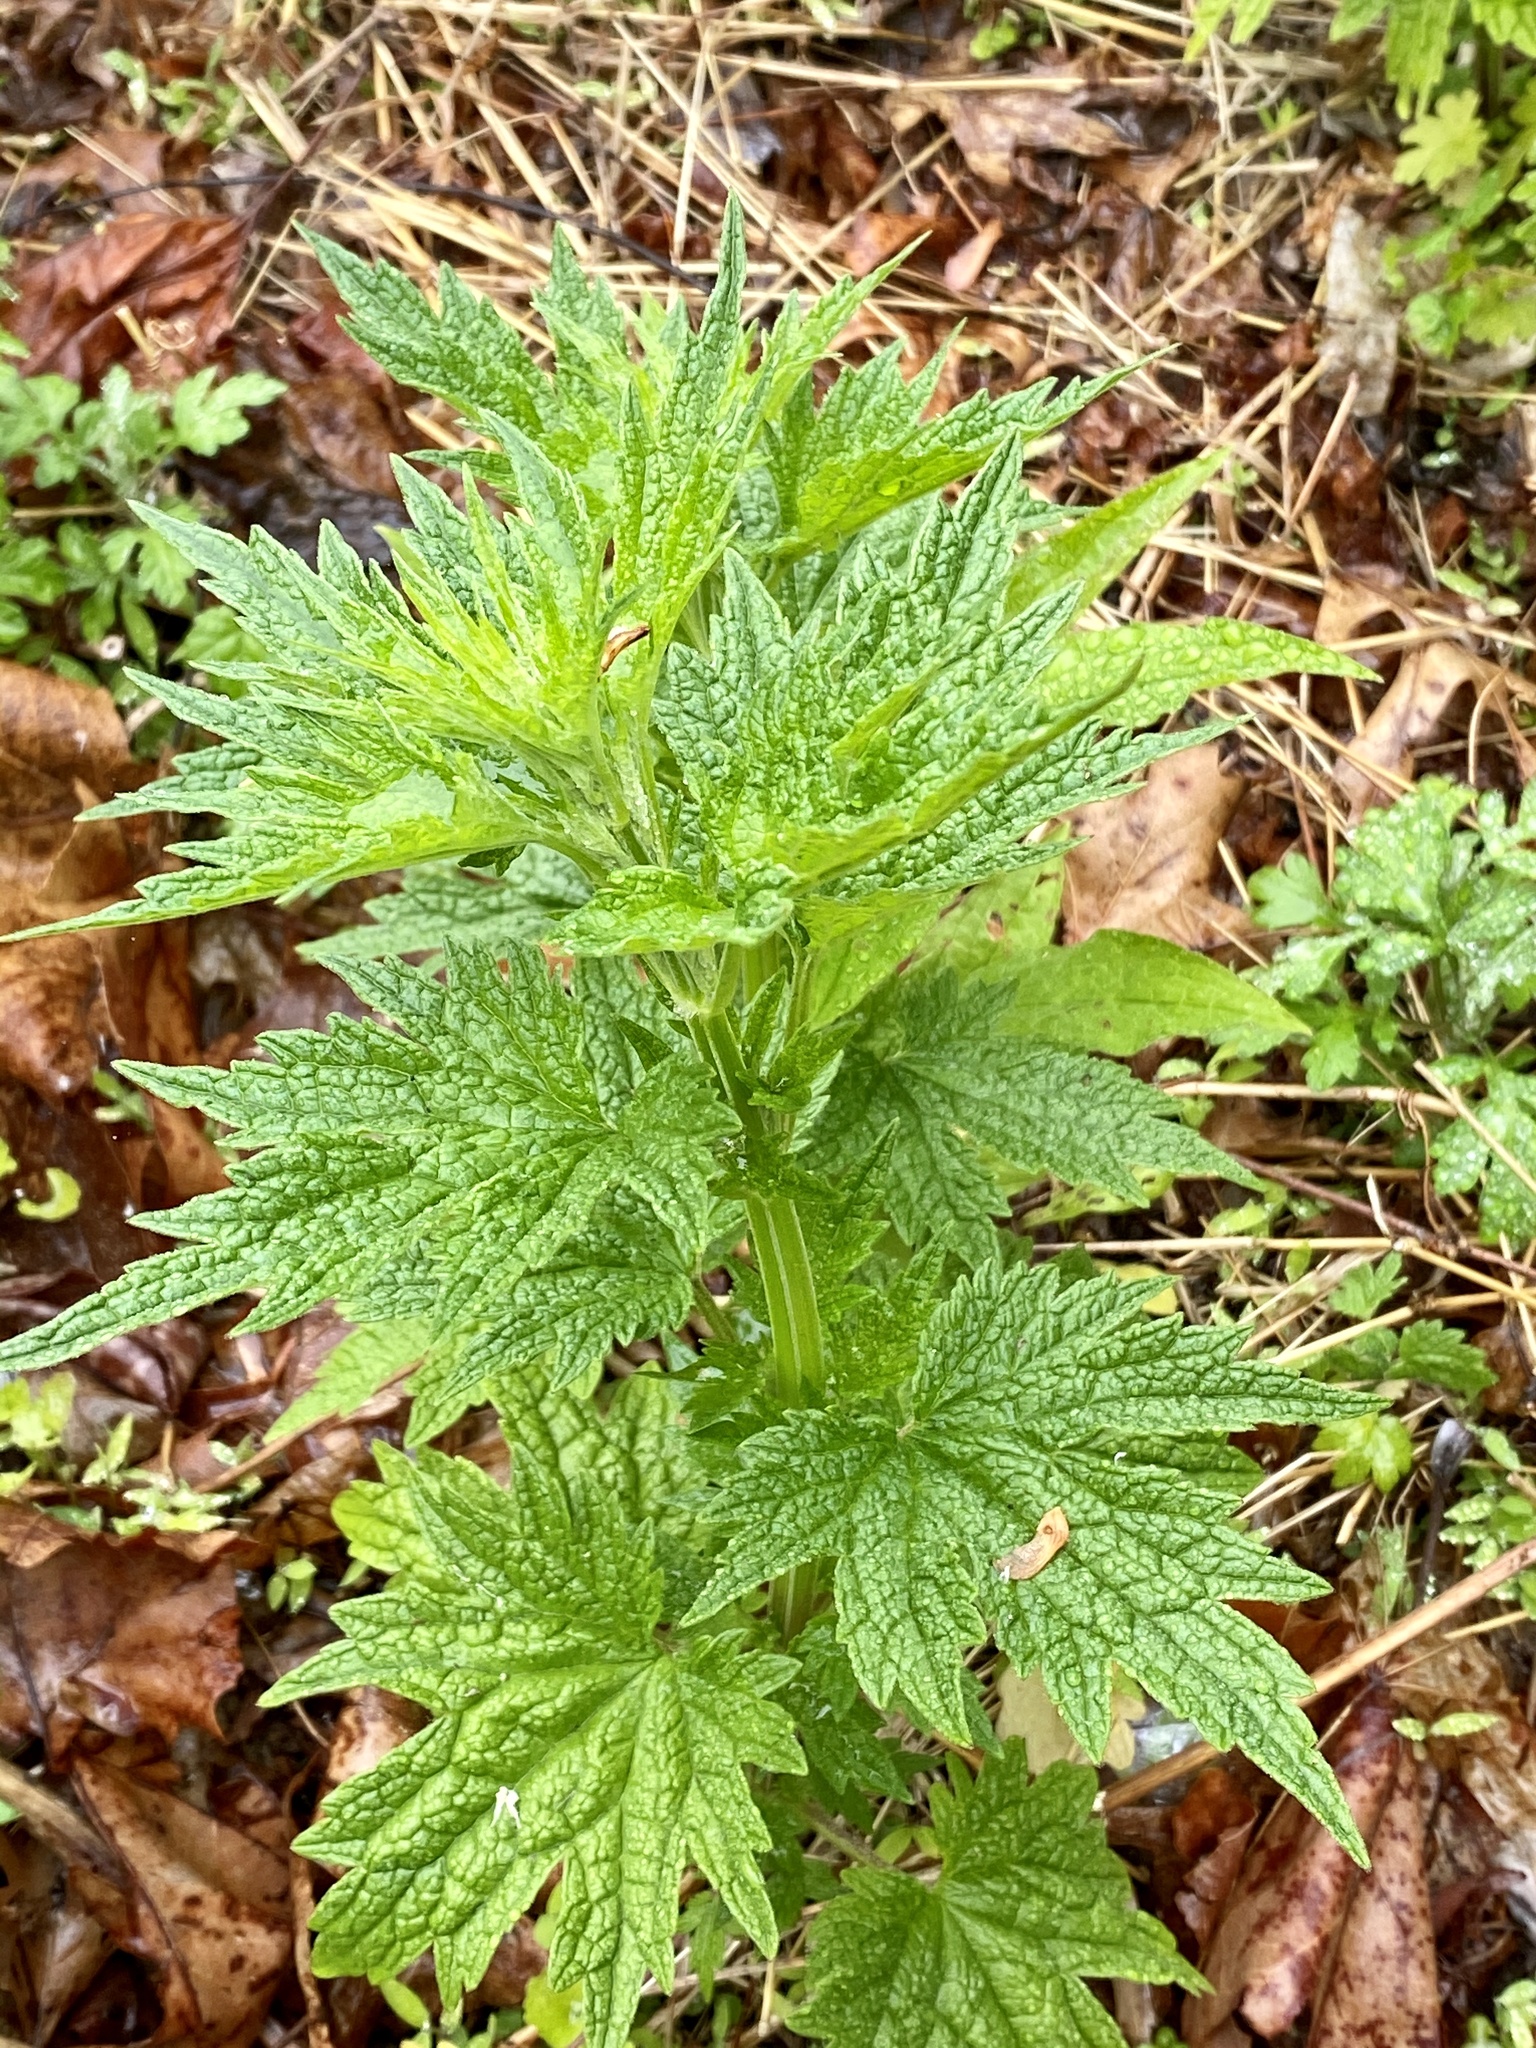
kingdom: Plantae
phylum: Tracheophyta
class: Magnoliopsida
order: Lamiales
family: Lamiaceae
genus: Leonurus
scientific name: Leonurus cardiaca
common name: Motherwort
